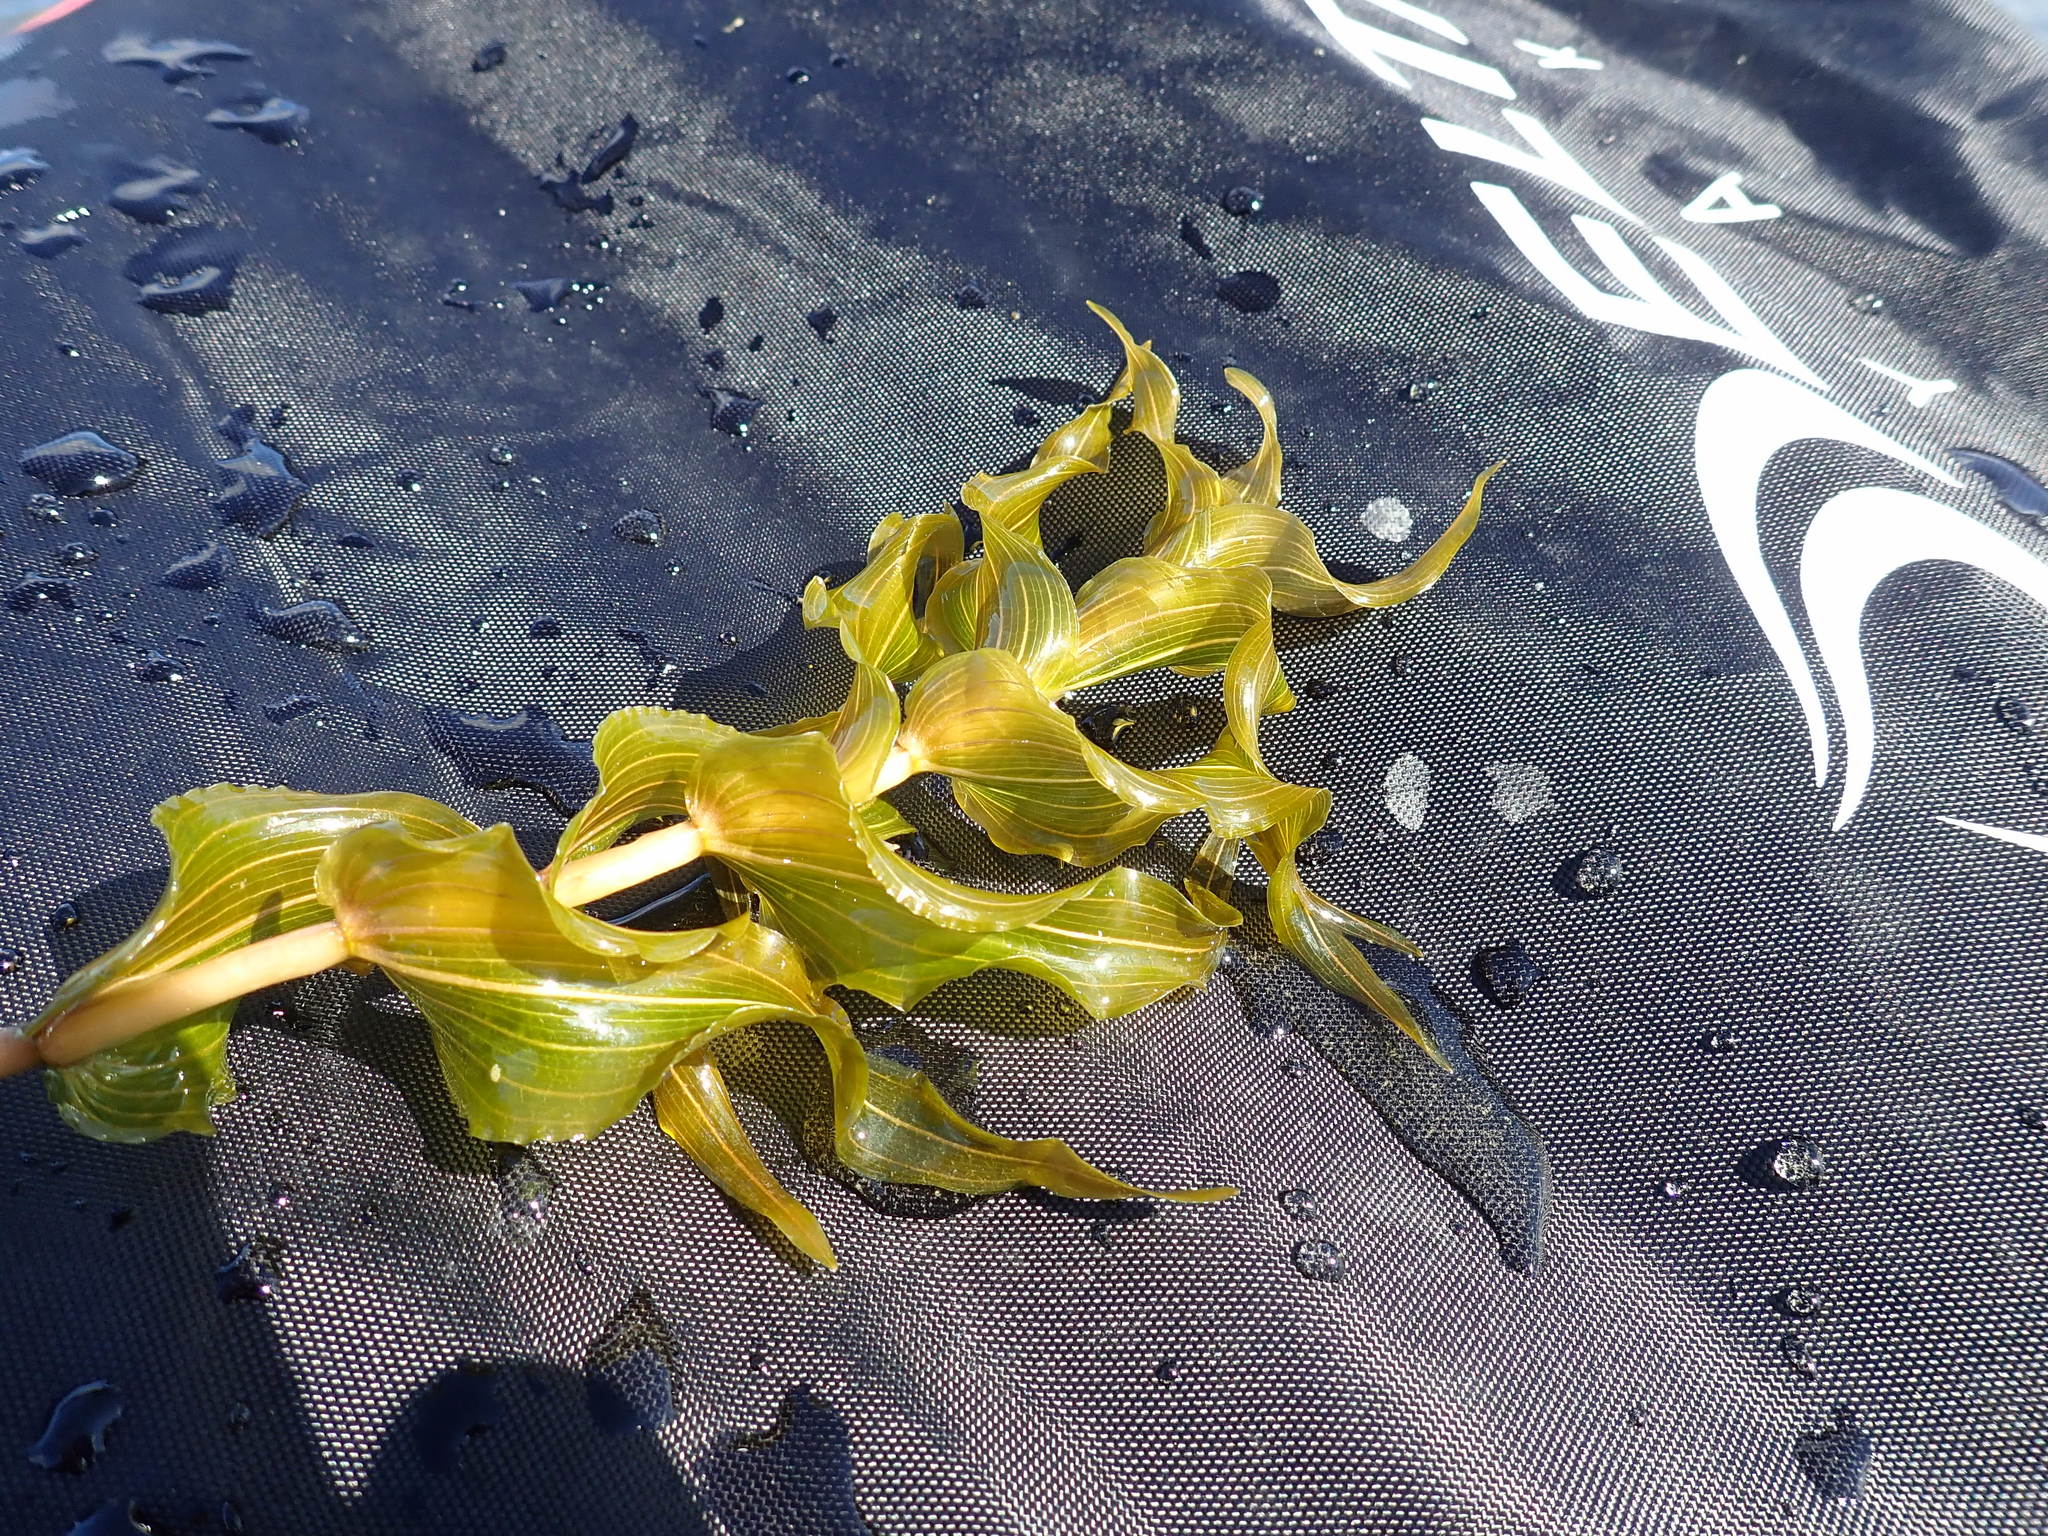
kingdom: Plantae
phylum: Tracheophyta
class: Liliopsida
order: Alismatales
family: Potamogetonaceae
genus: Potamogeton
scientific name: Potamogeton richardsonii
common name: Richardson's pondweed
